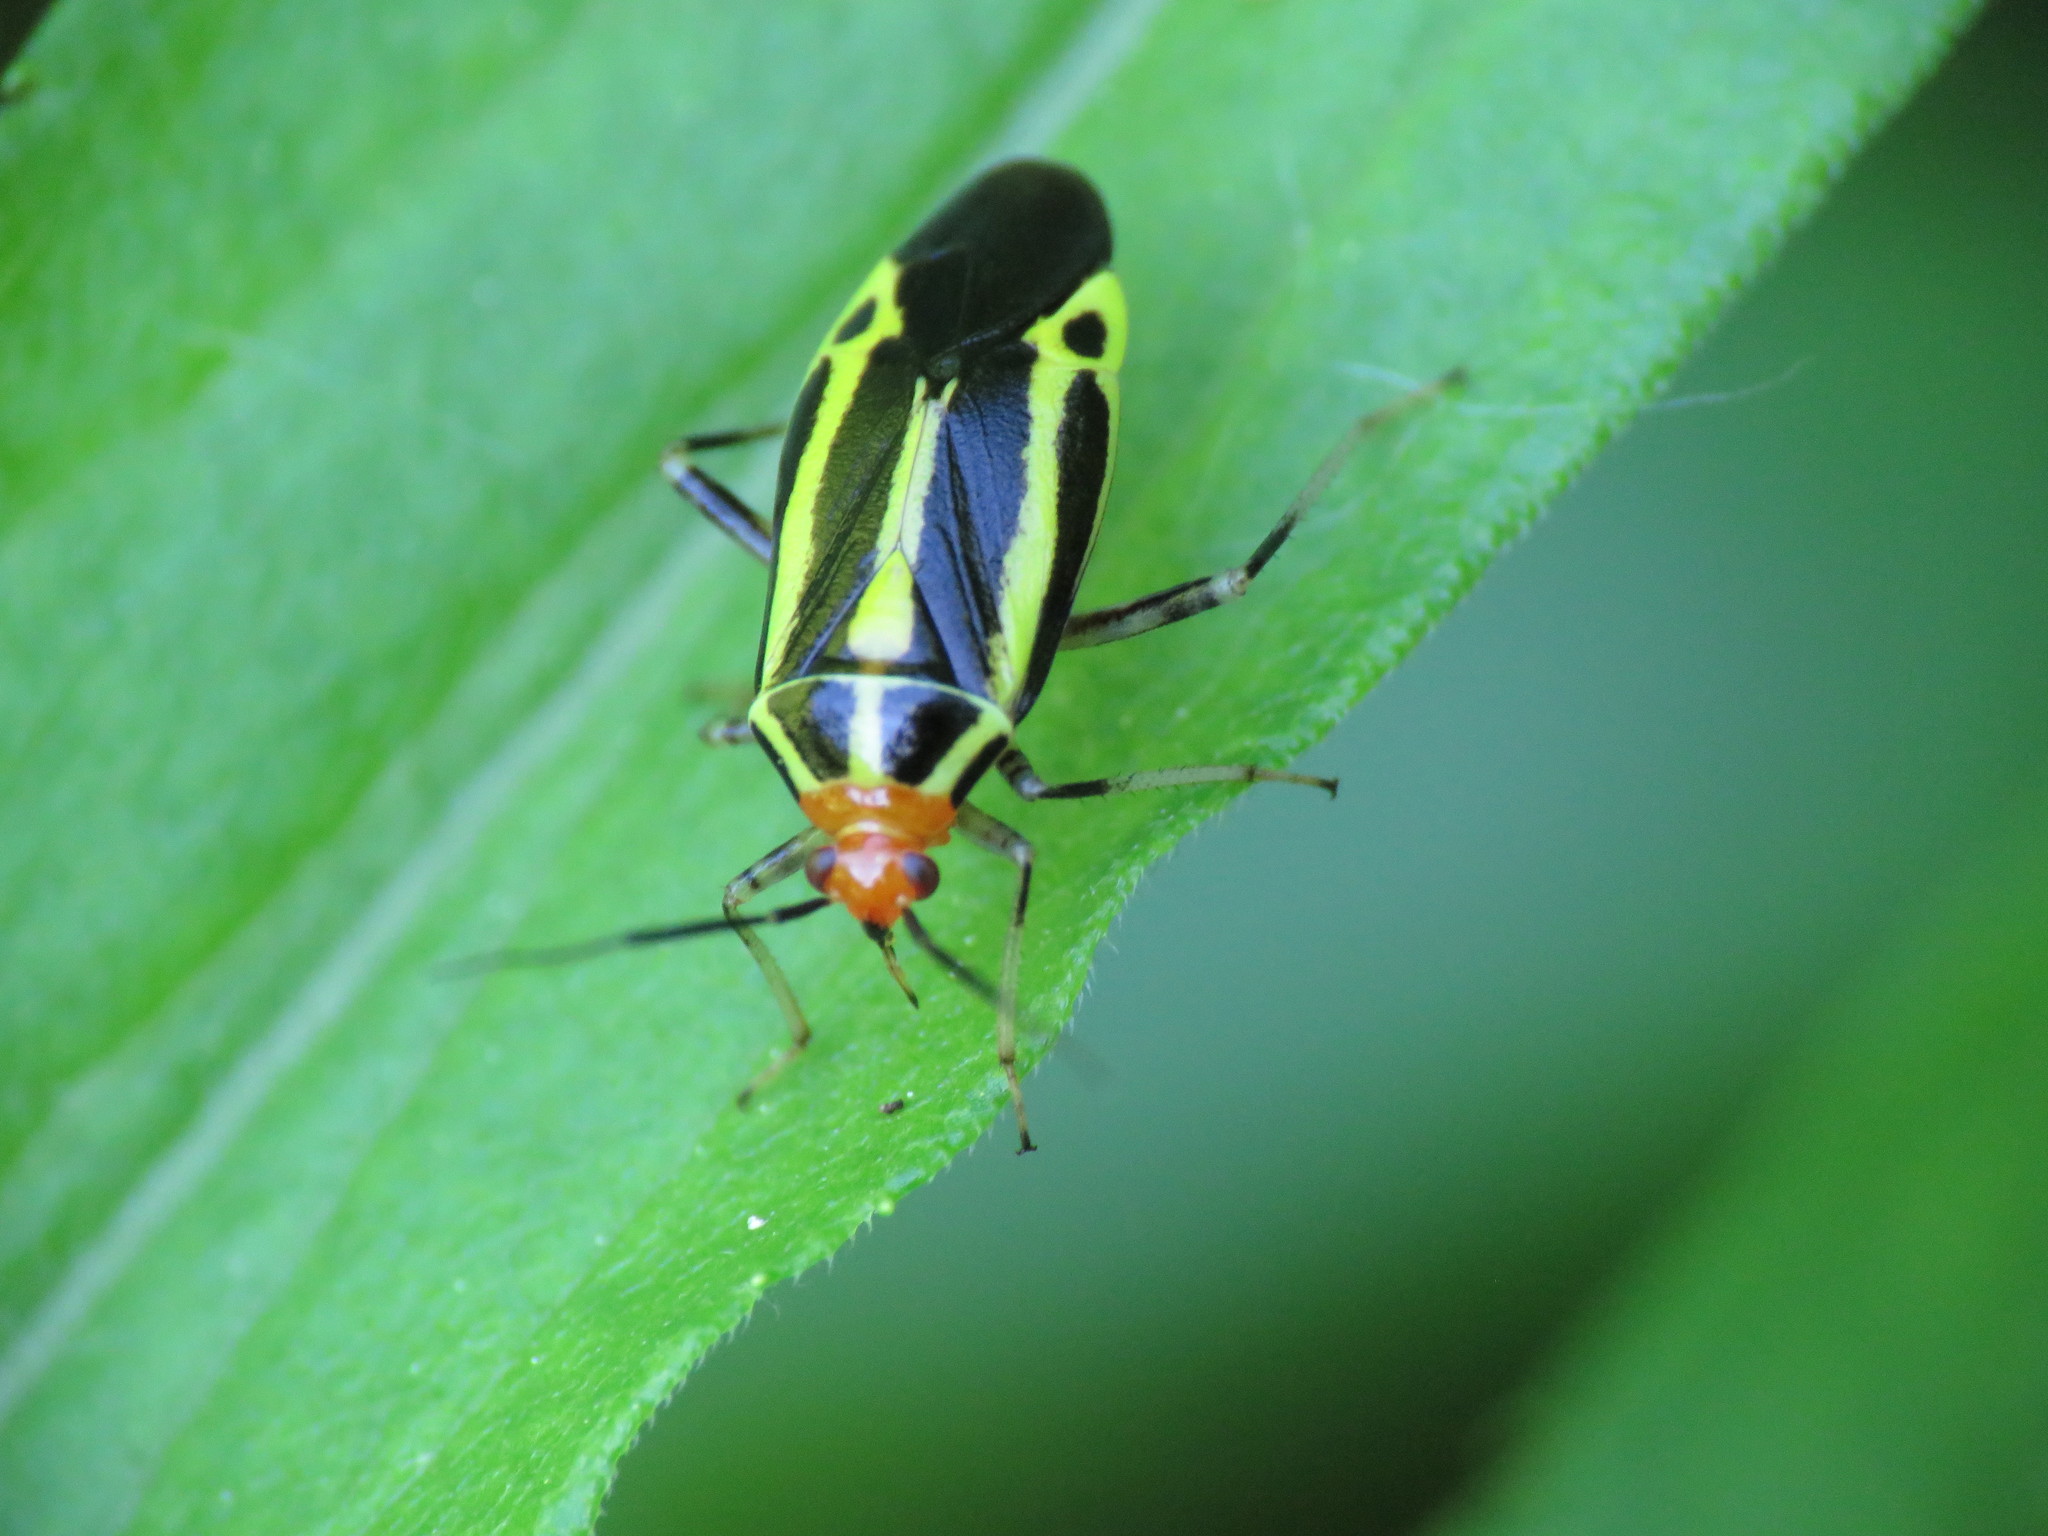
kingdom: Animalia
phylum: Arthropoda
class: Insecta
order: Hemiptera
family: Miridae
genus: Poecilocapsus
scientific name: Poecilocapsus lineatus
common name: Four-lined plant bug
